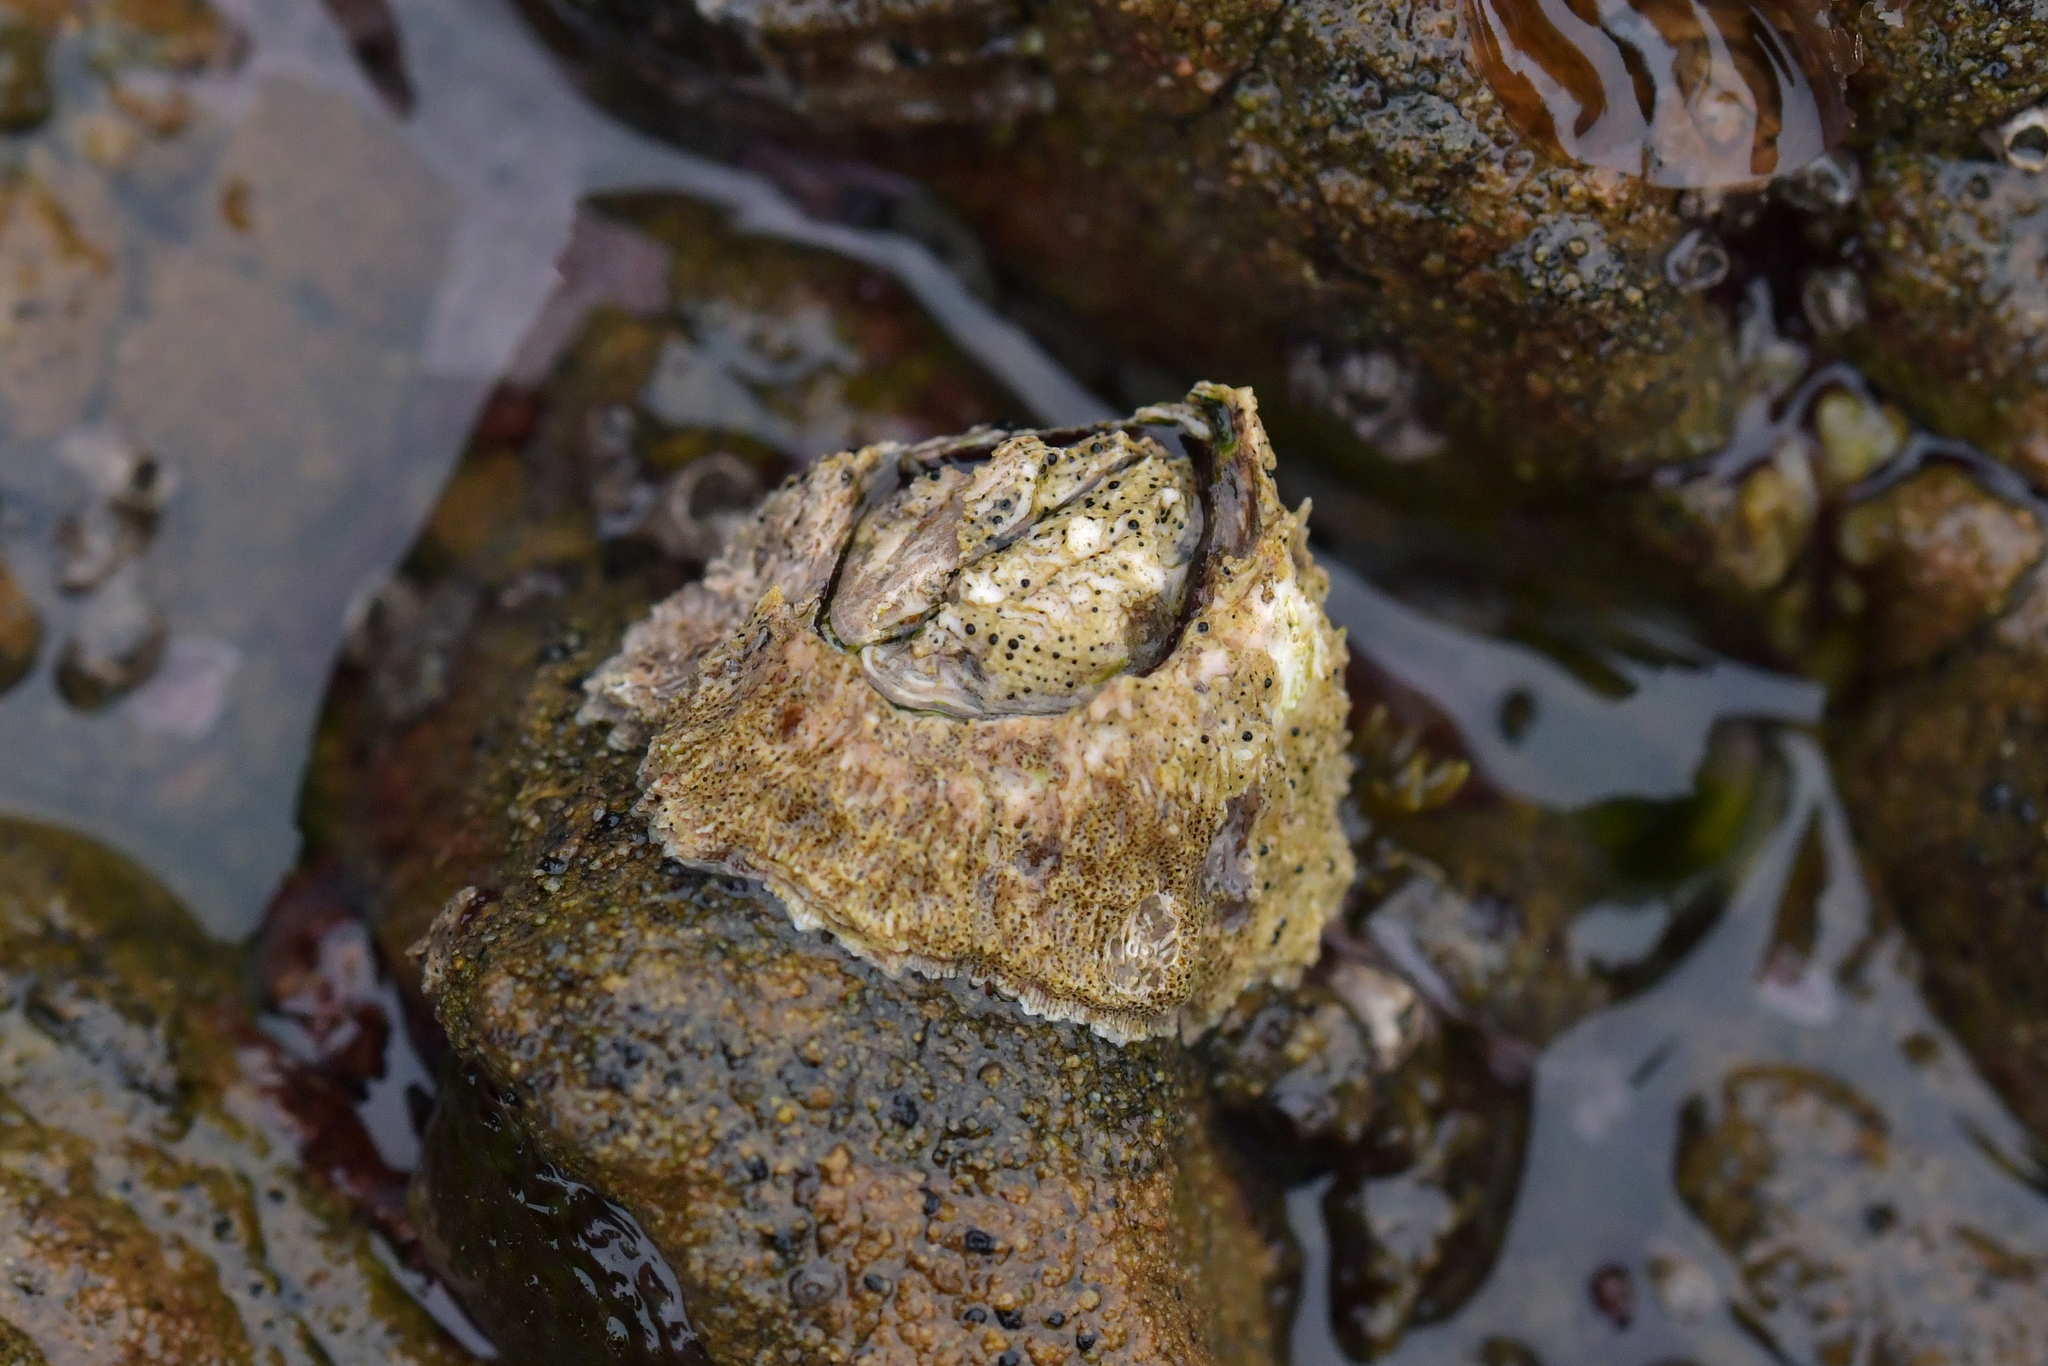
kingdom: Animalia
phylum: Arthropoda
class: Maxillopoda
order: Sessilia
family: Tetraclitidae
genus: Epopella
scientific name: Epopella plicata
